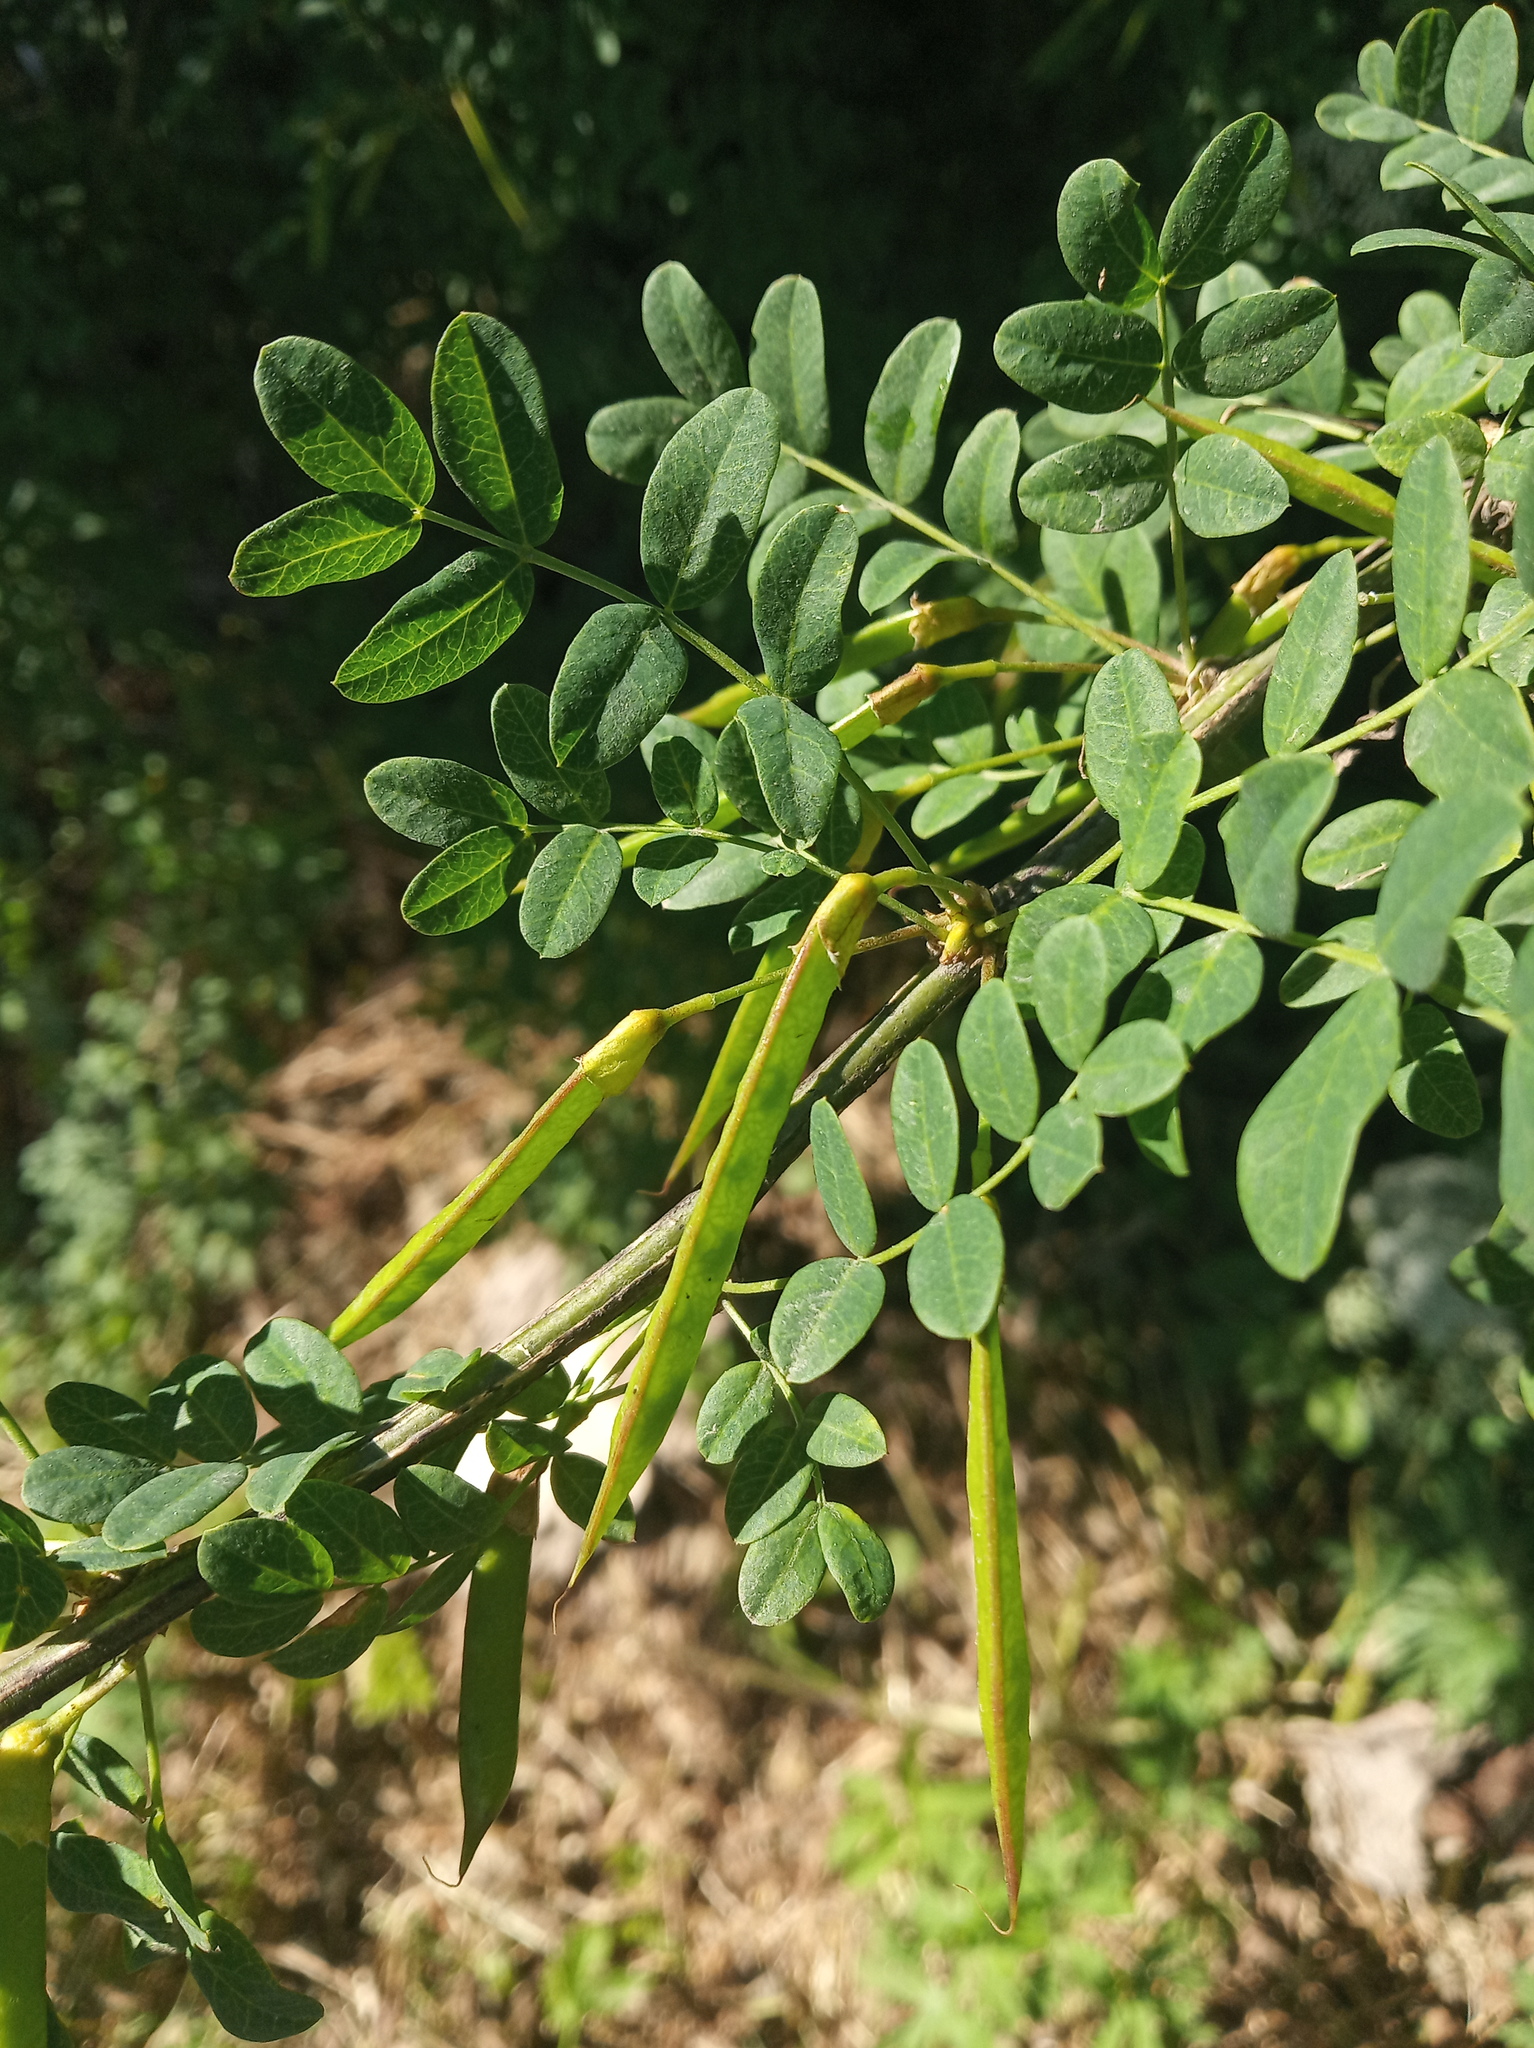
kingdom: Plantae
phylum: Tracheophyta
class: Magnoliopsida
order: Fabales
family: Fabaceae
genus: Caragana
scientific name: Caragana arborescens
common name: Siberian peashrub
